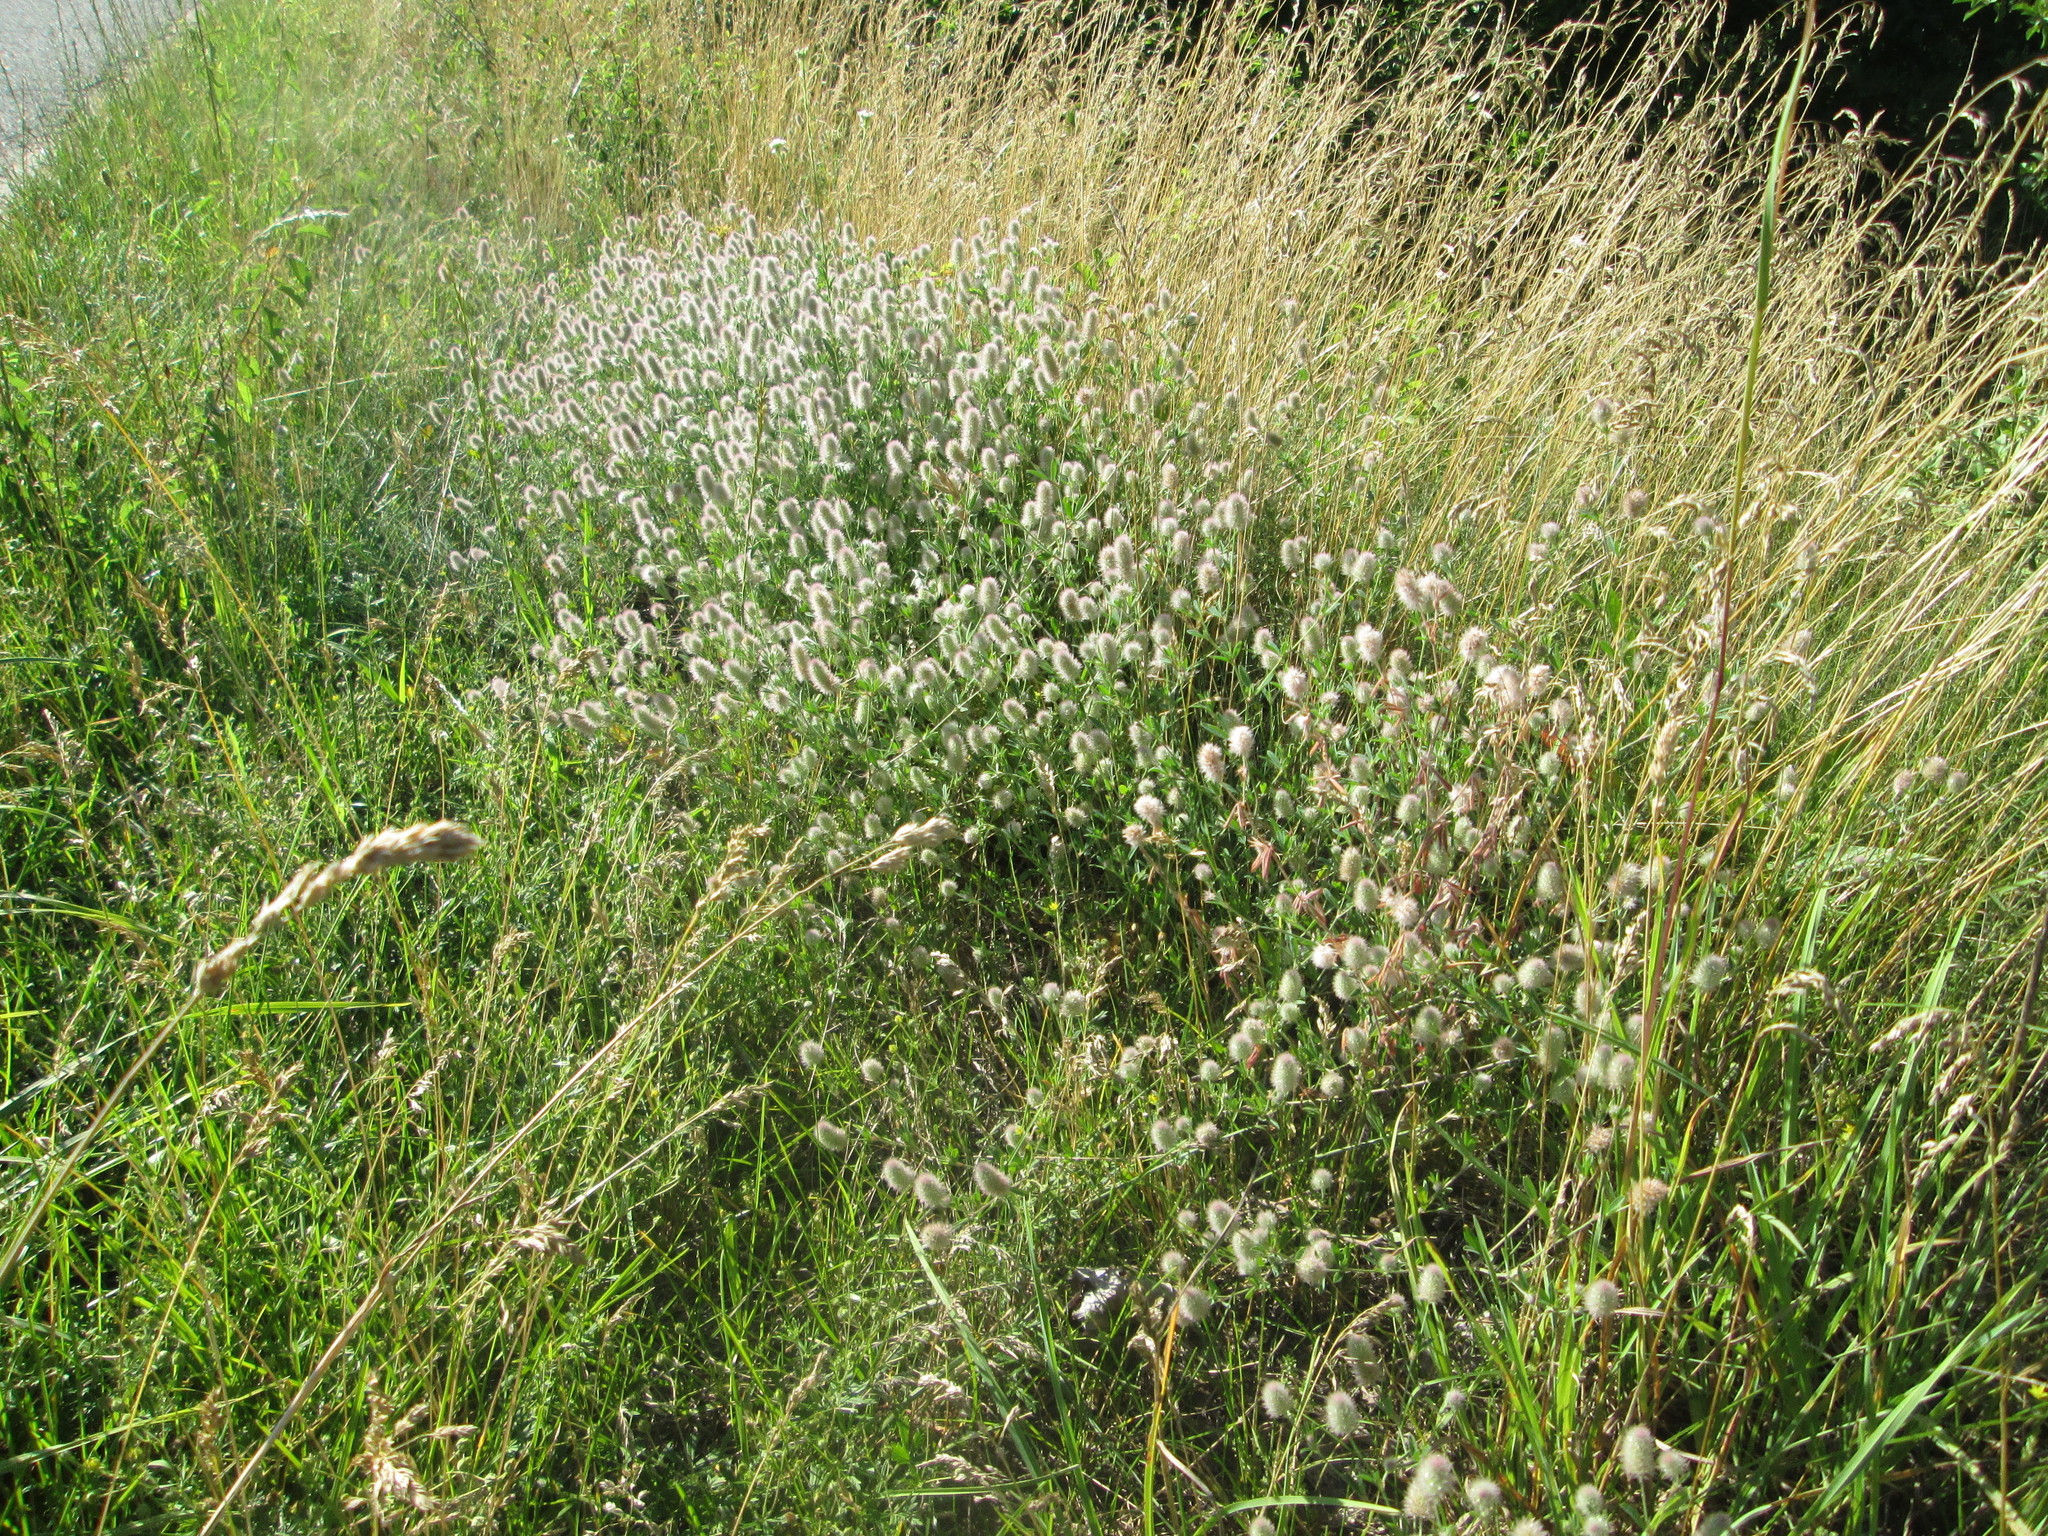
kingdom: Plantae
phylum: Tracheophyta
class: Magnoliopsida
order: Fabales
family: Fabaceae
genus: Trifolium
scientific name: Trifolium arvense
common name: Hare's-foot clover
